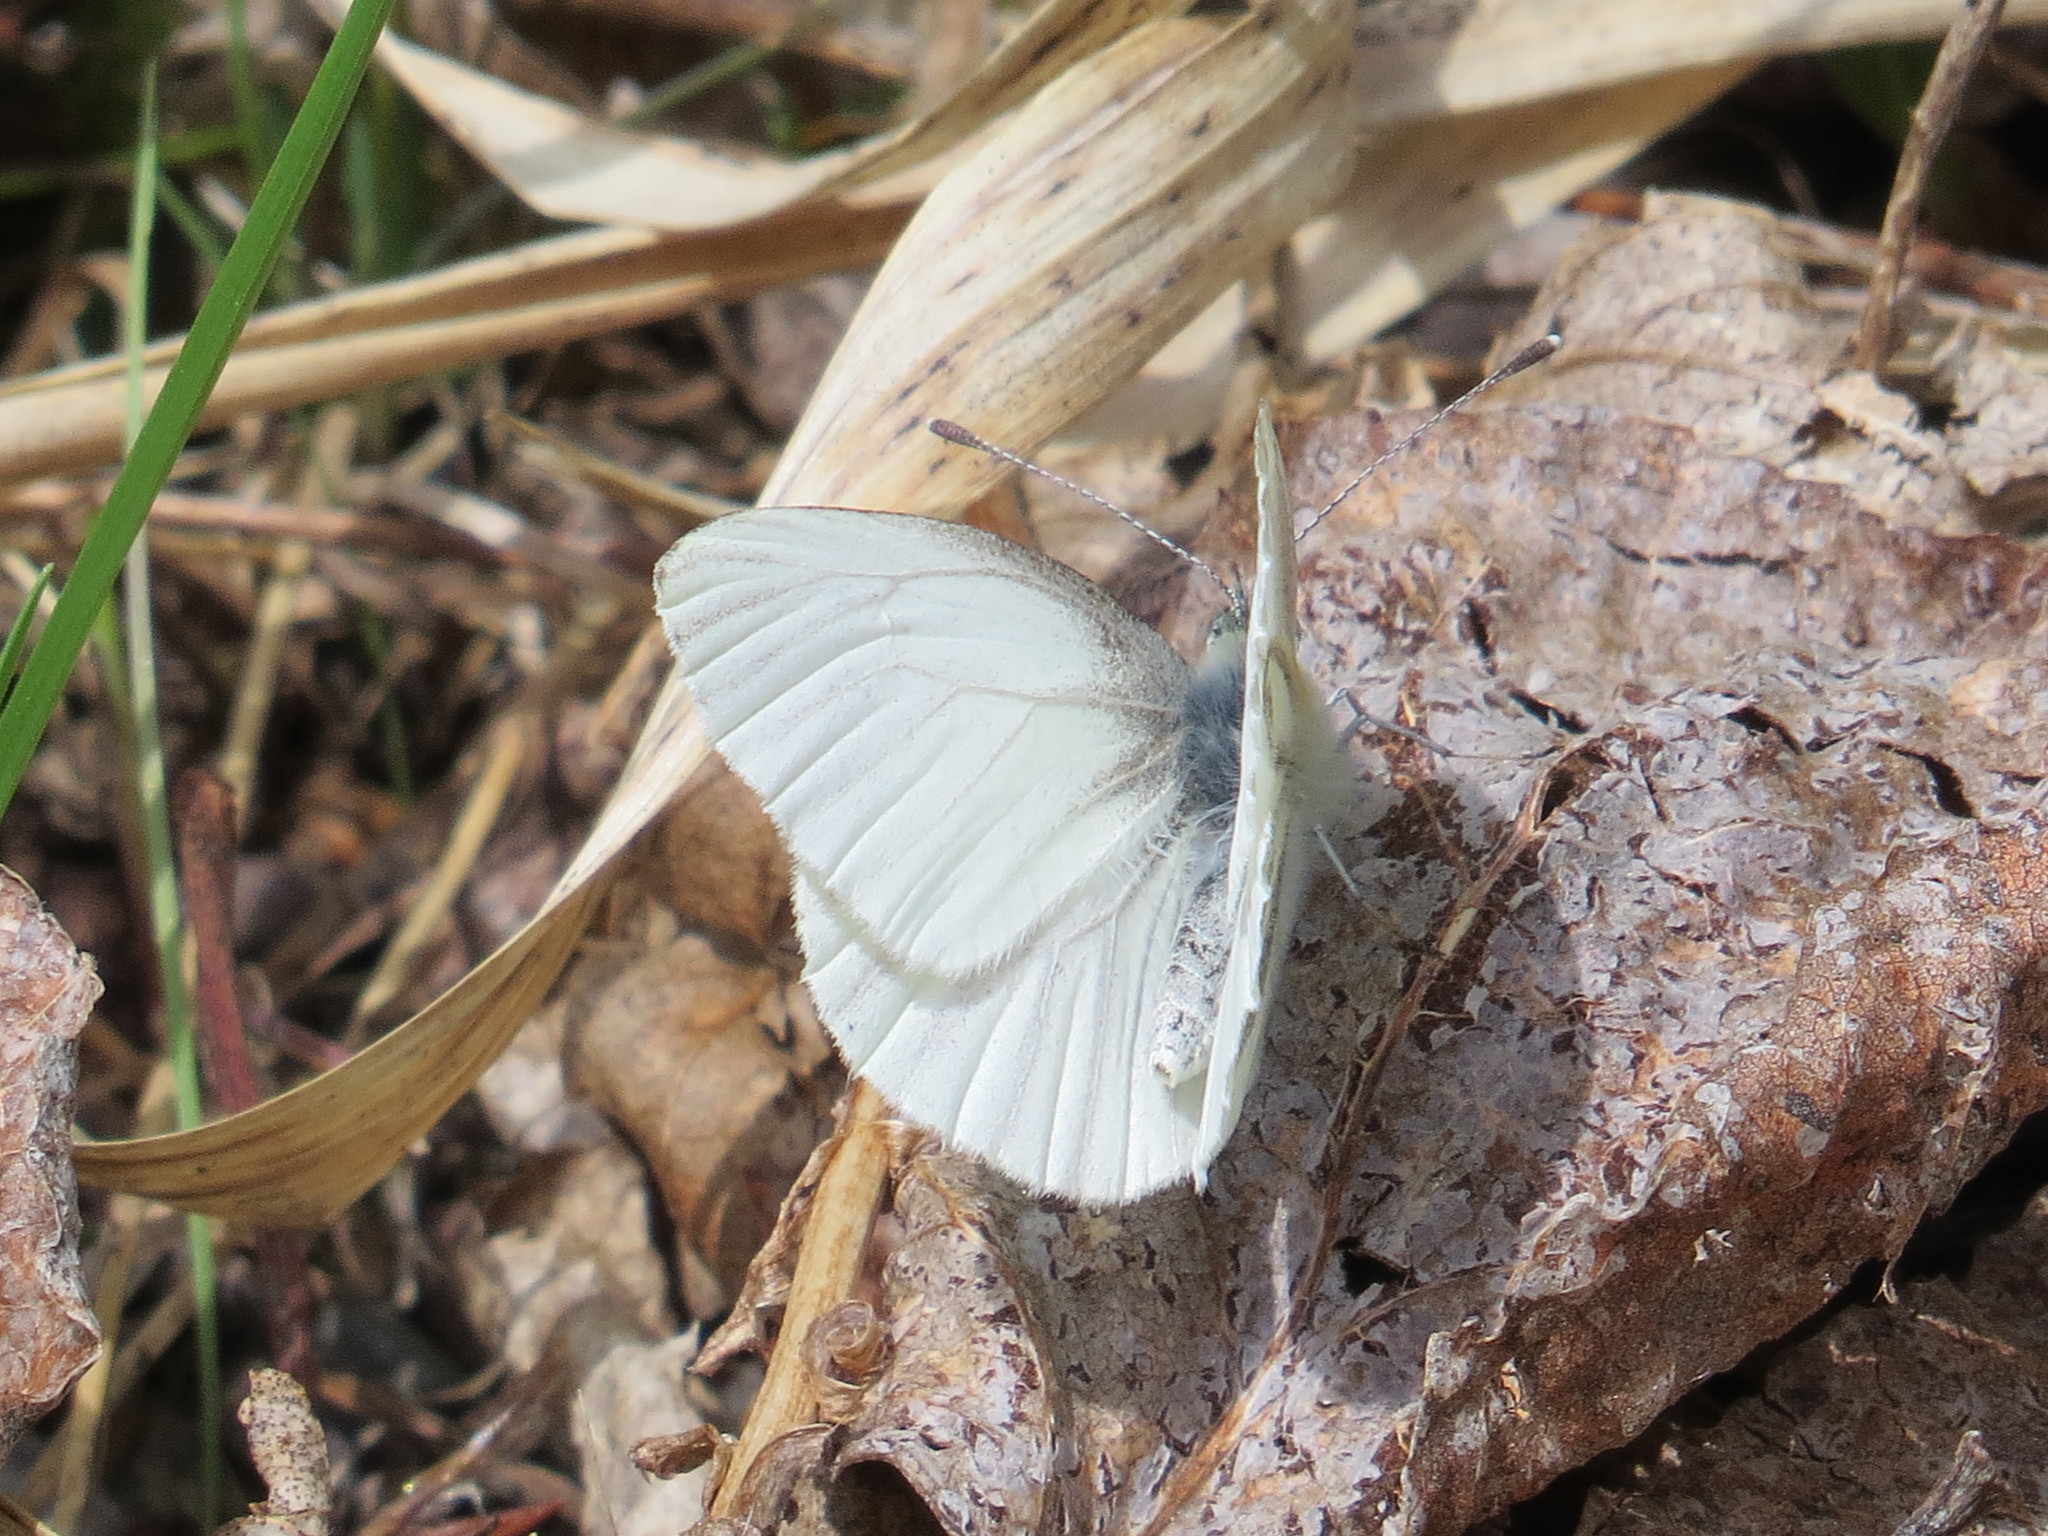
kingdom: Animalia
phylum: Arthropoda
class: Insecta
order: Lepidoptera
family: Pieridae
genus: Pieris
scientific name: Pieris oleracea
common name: Mustard white
